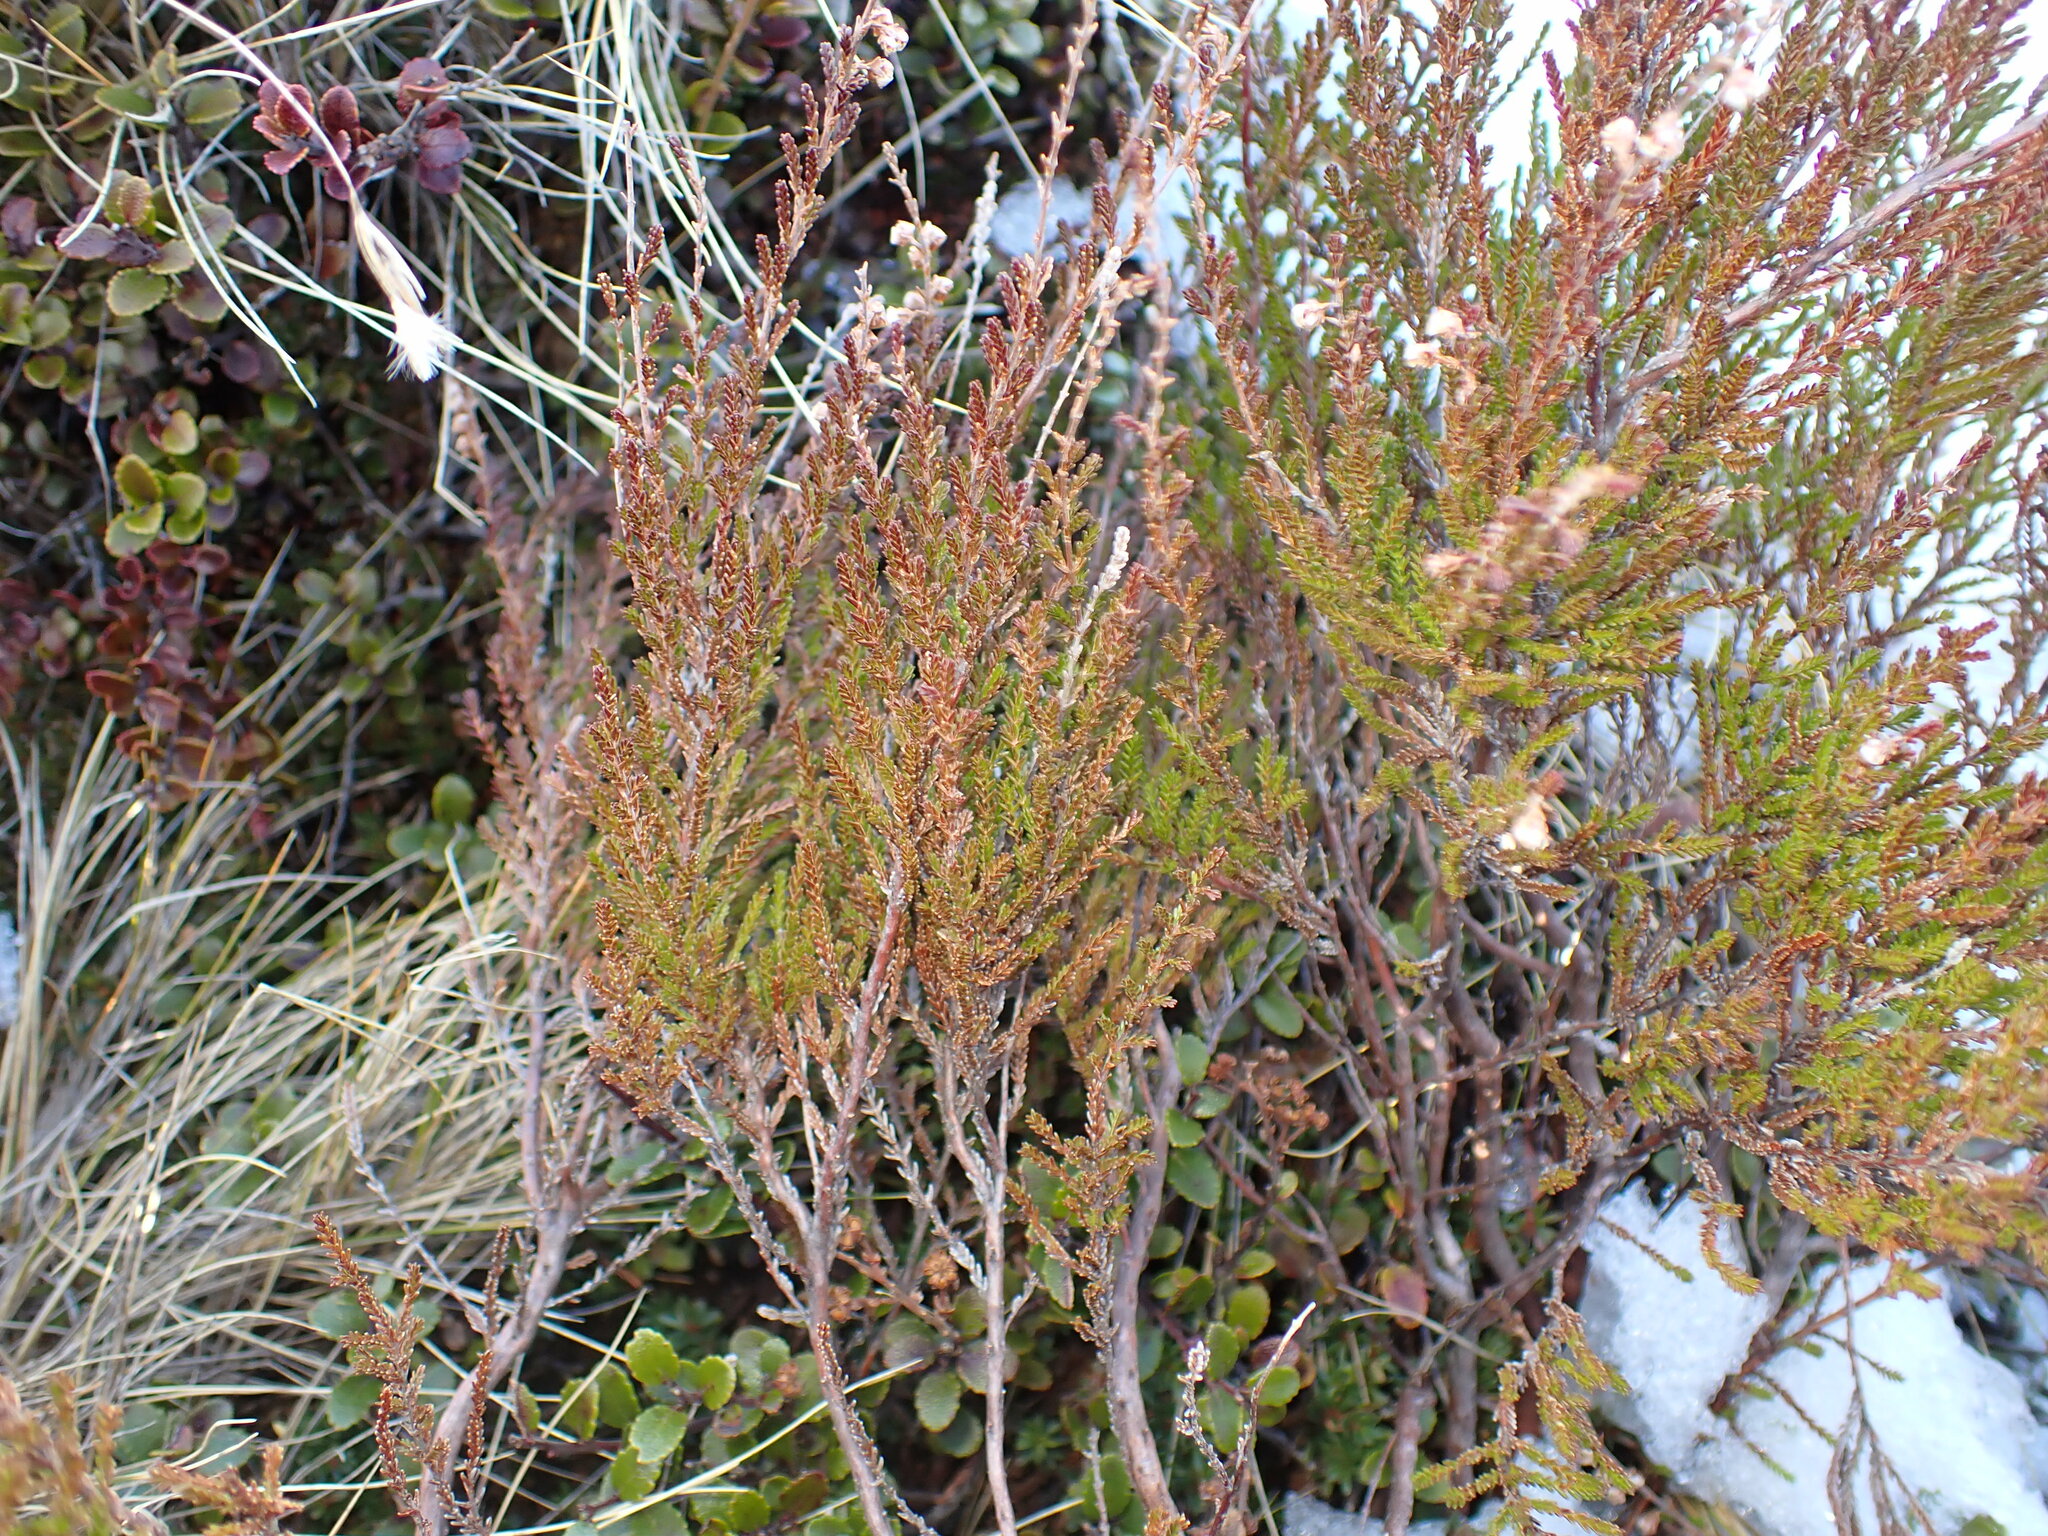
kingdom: Plantae
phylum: Tracheophyta
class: Magnoliopsida
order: Ericales
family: Ericaceae
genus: Calluna
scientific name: Calluna vulgaris
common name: Heather
